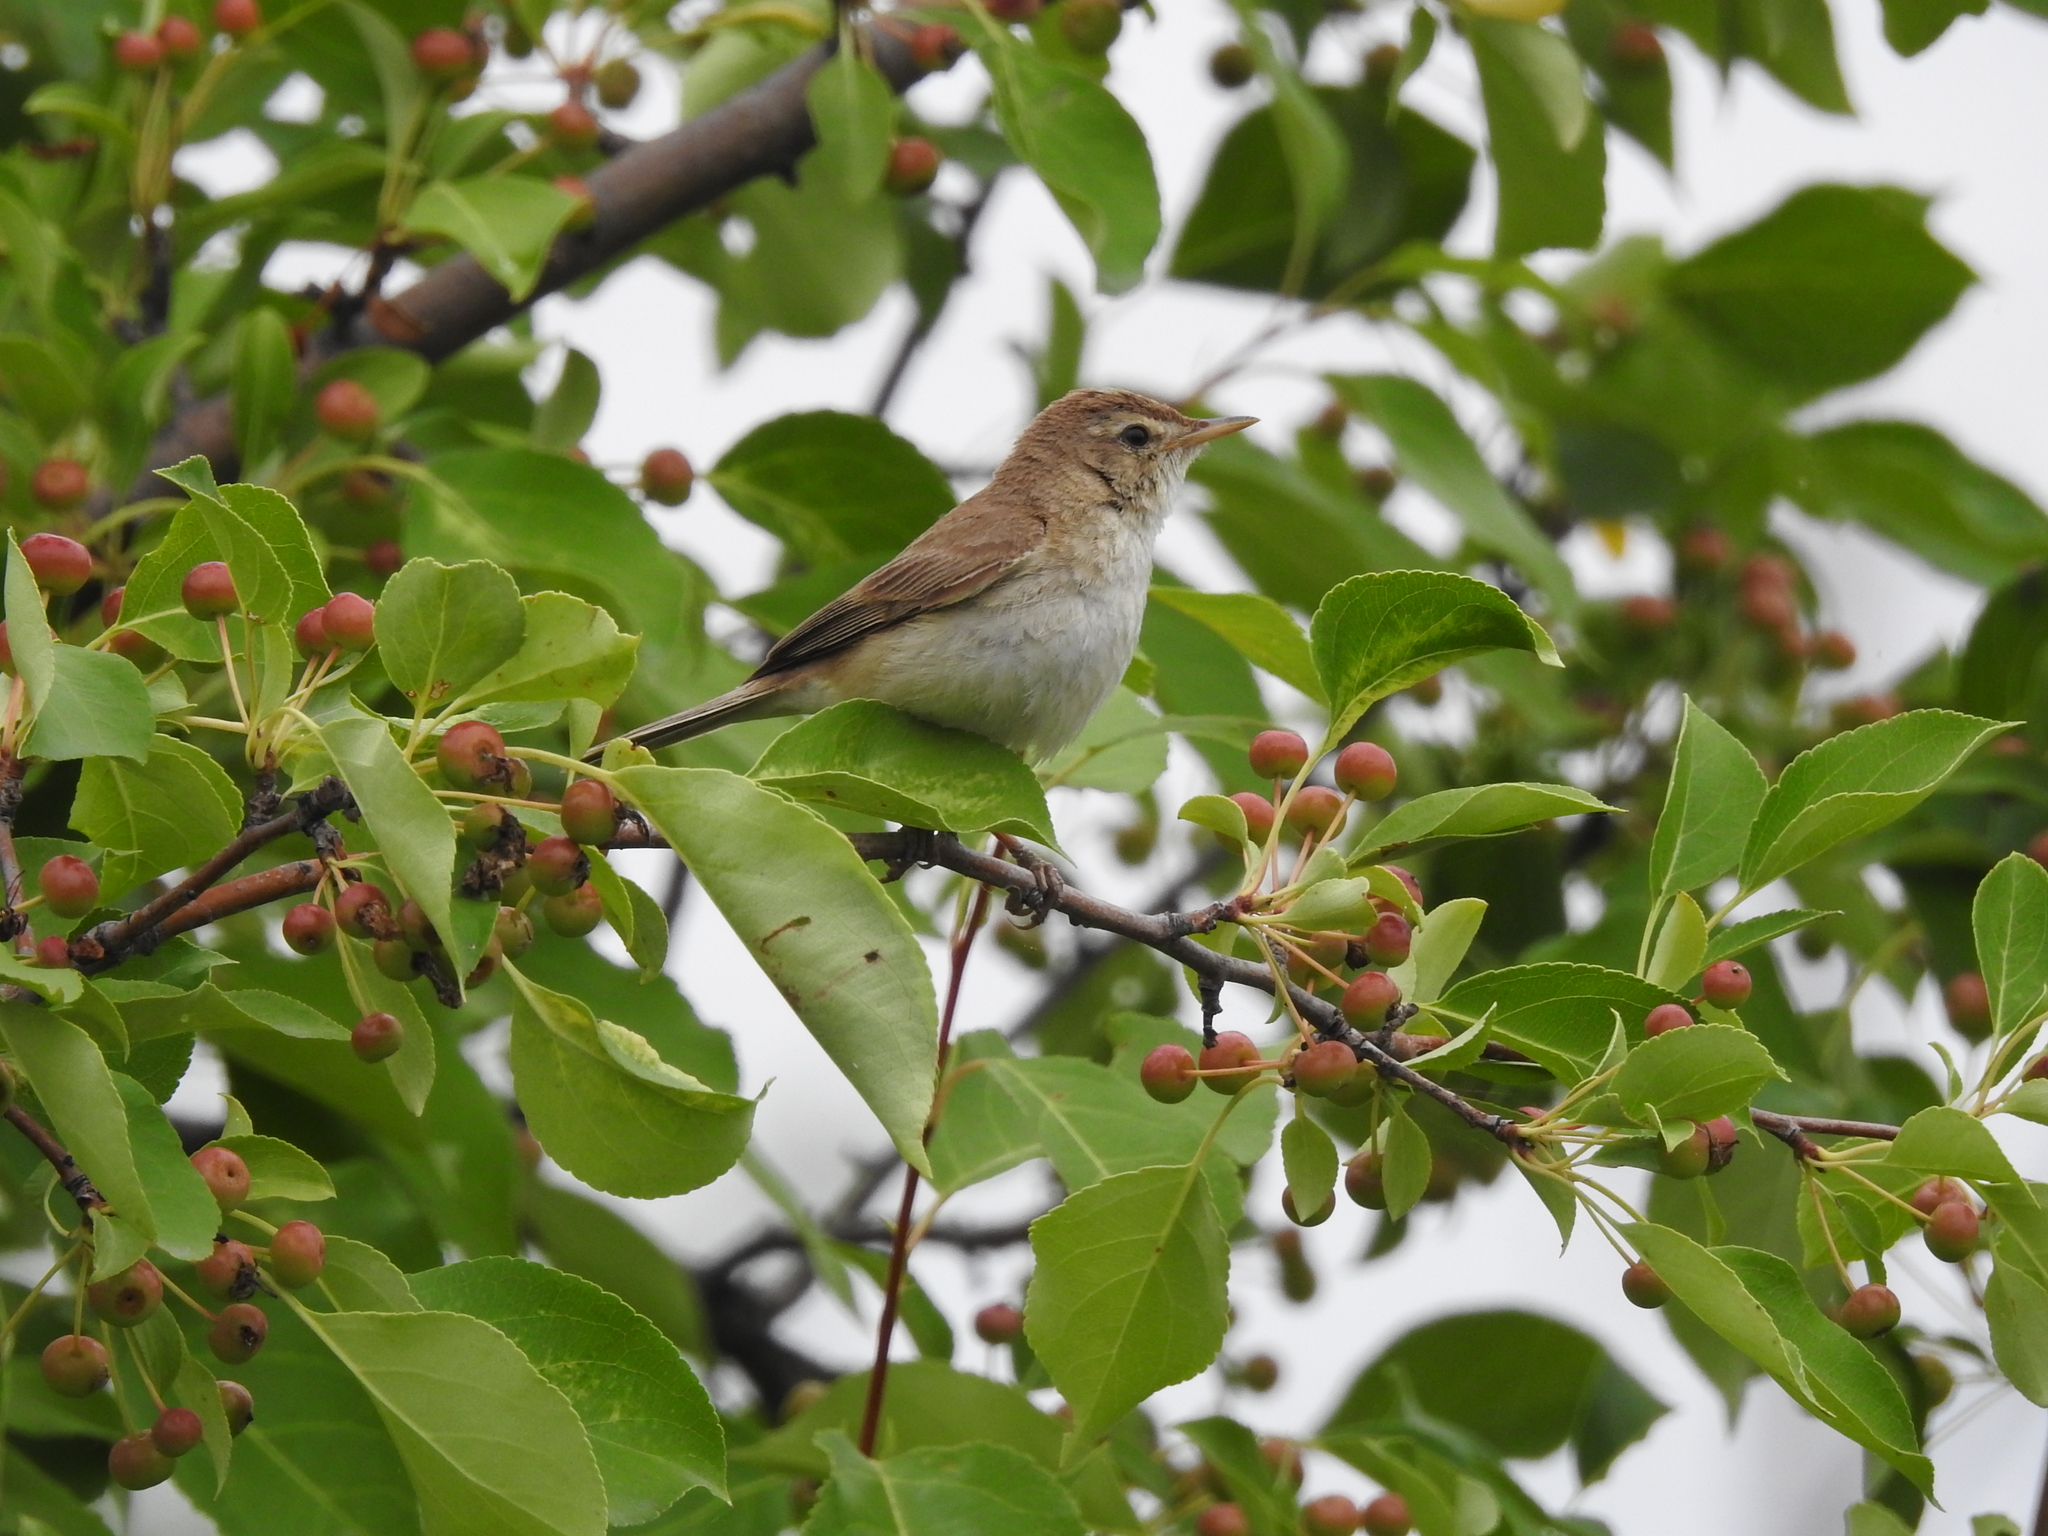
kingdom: Animalia
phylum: Chordata
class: Aves
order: Passeriformes
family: Acrocephalidae
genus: Iduna
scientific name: Iduna caligata
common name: Booted warbler
